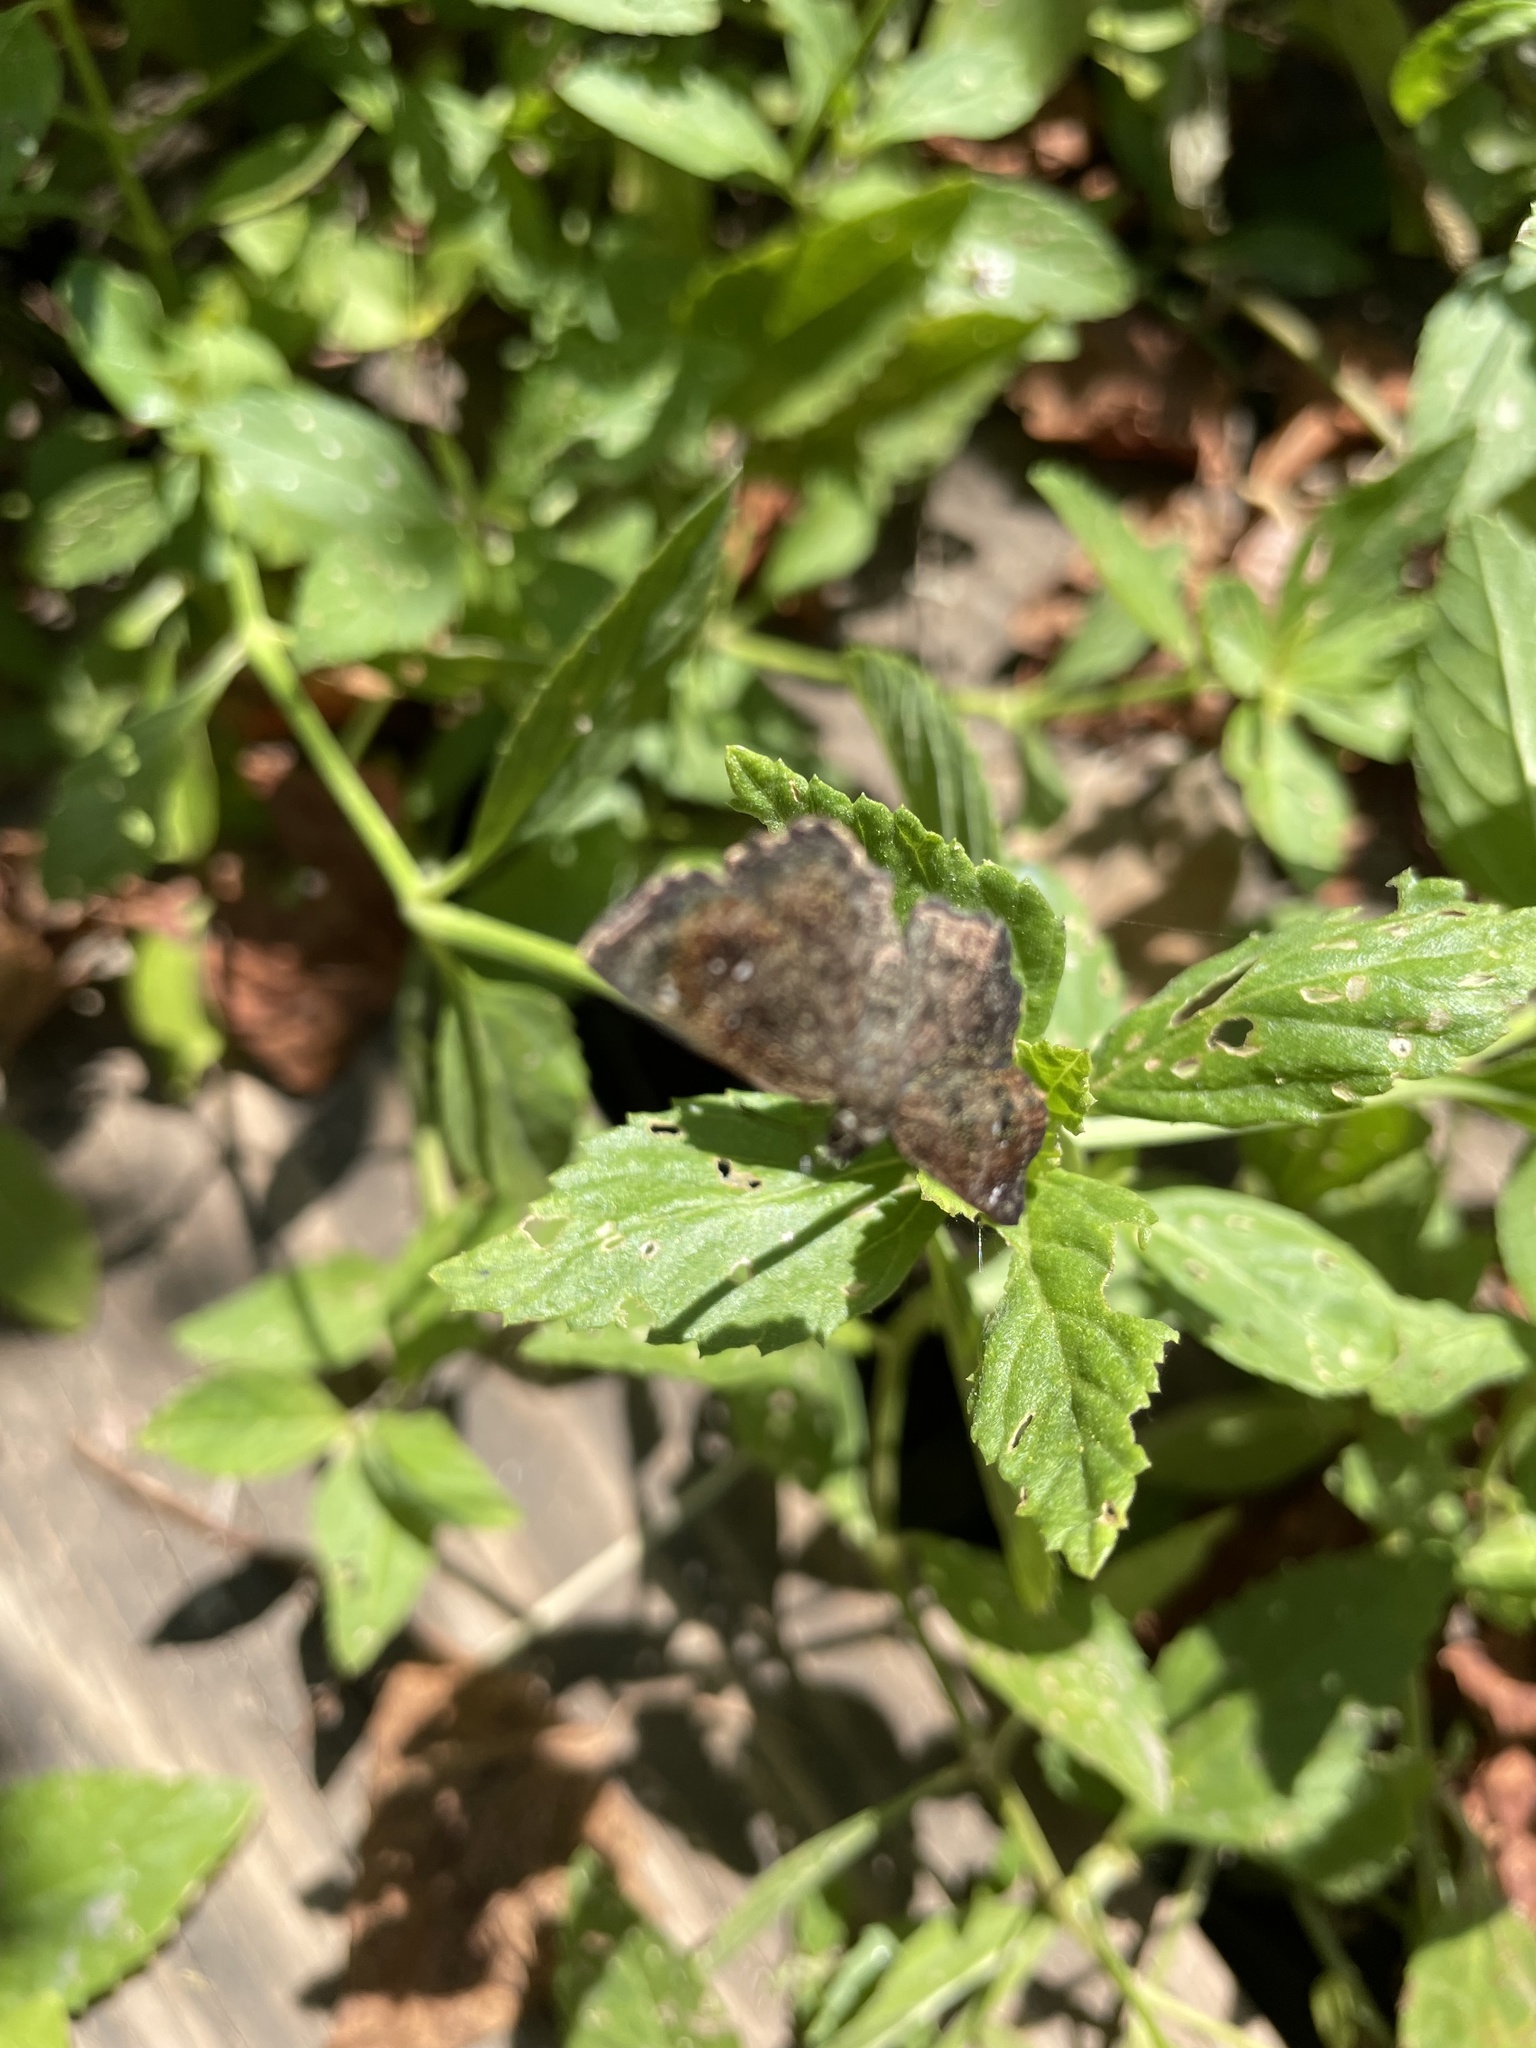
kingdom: Animalia
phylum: Arthropoda
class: Insecta
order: Lepidoptera
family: Hesperiidae
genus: Staphylus
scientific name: Staphylus mazans
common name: Mazans scallopwing
